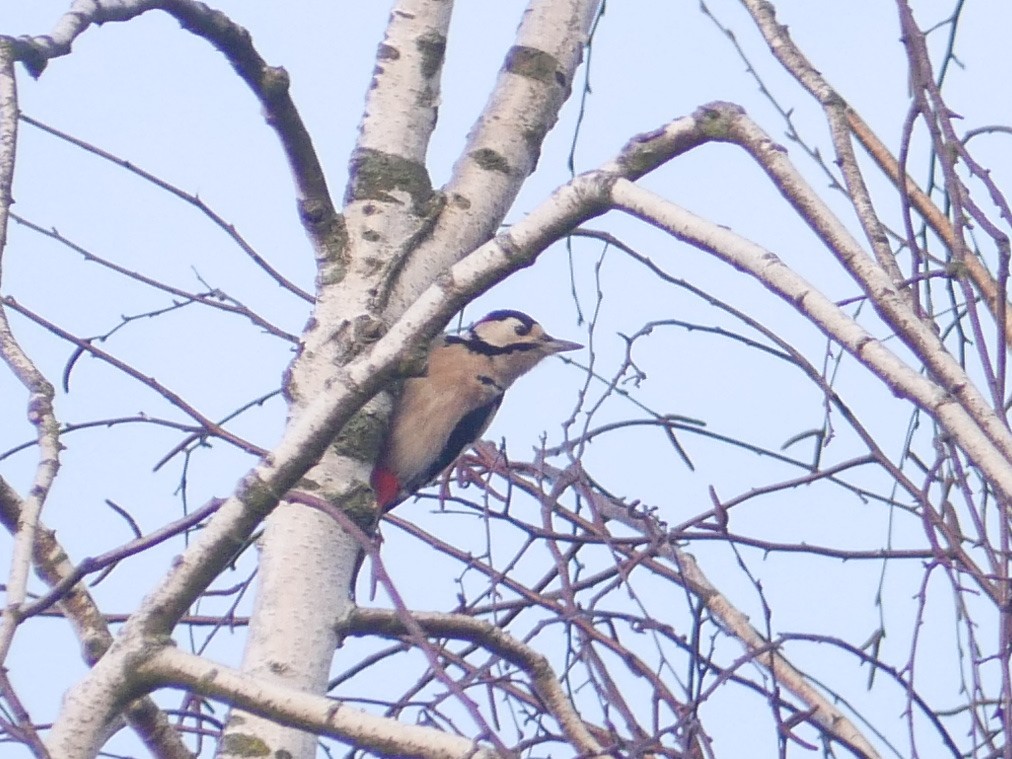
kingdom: Animalia
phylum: Chordata
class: Aves
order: Piciformes
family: Picidae
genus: Dendrocopos
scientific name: Dendrocopos major
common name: Great spotted woodpecker
